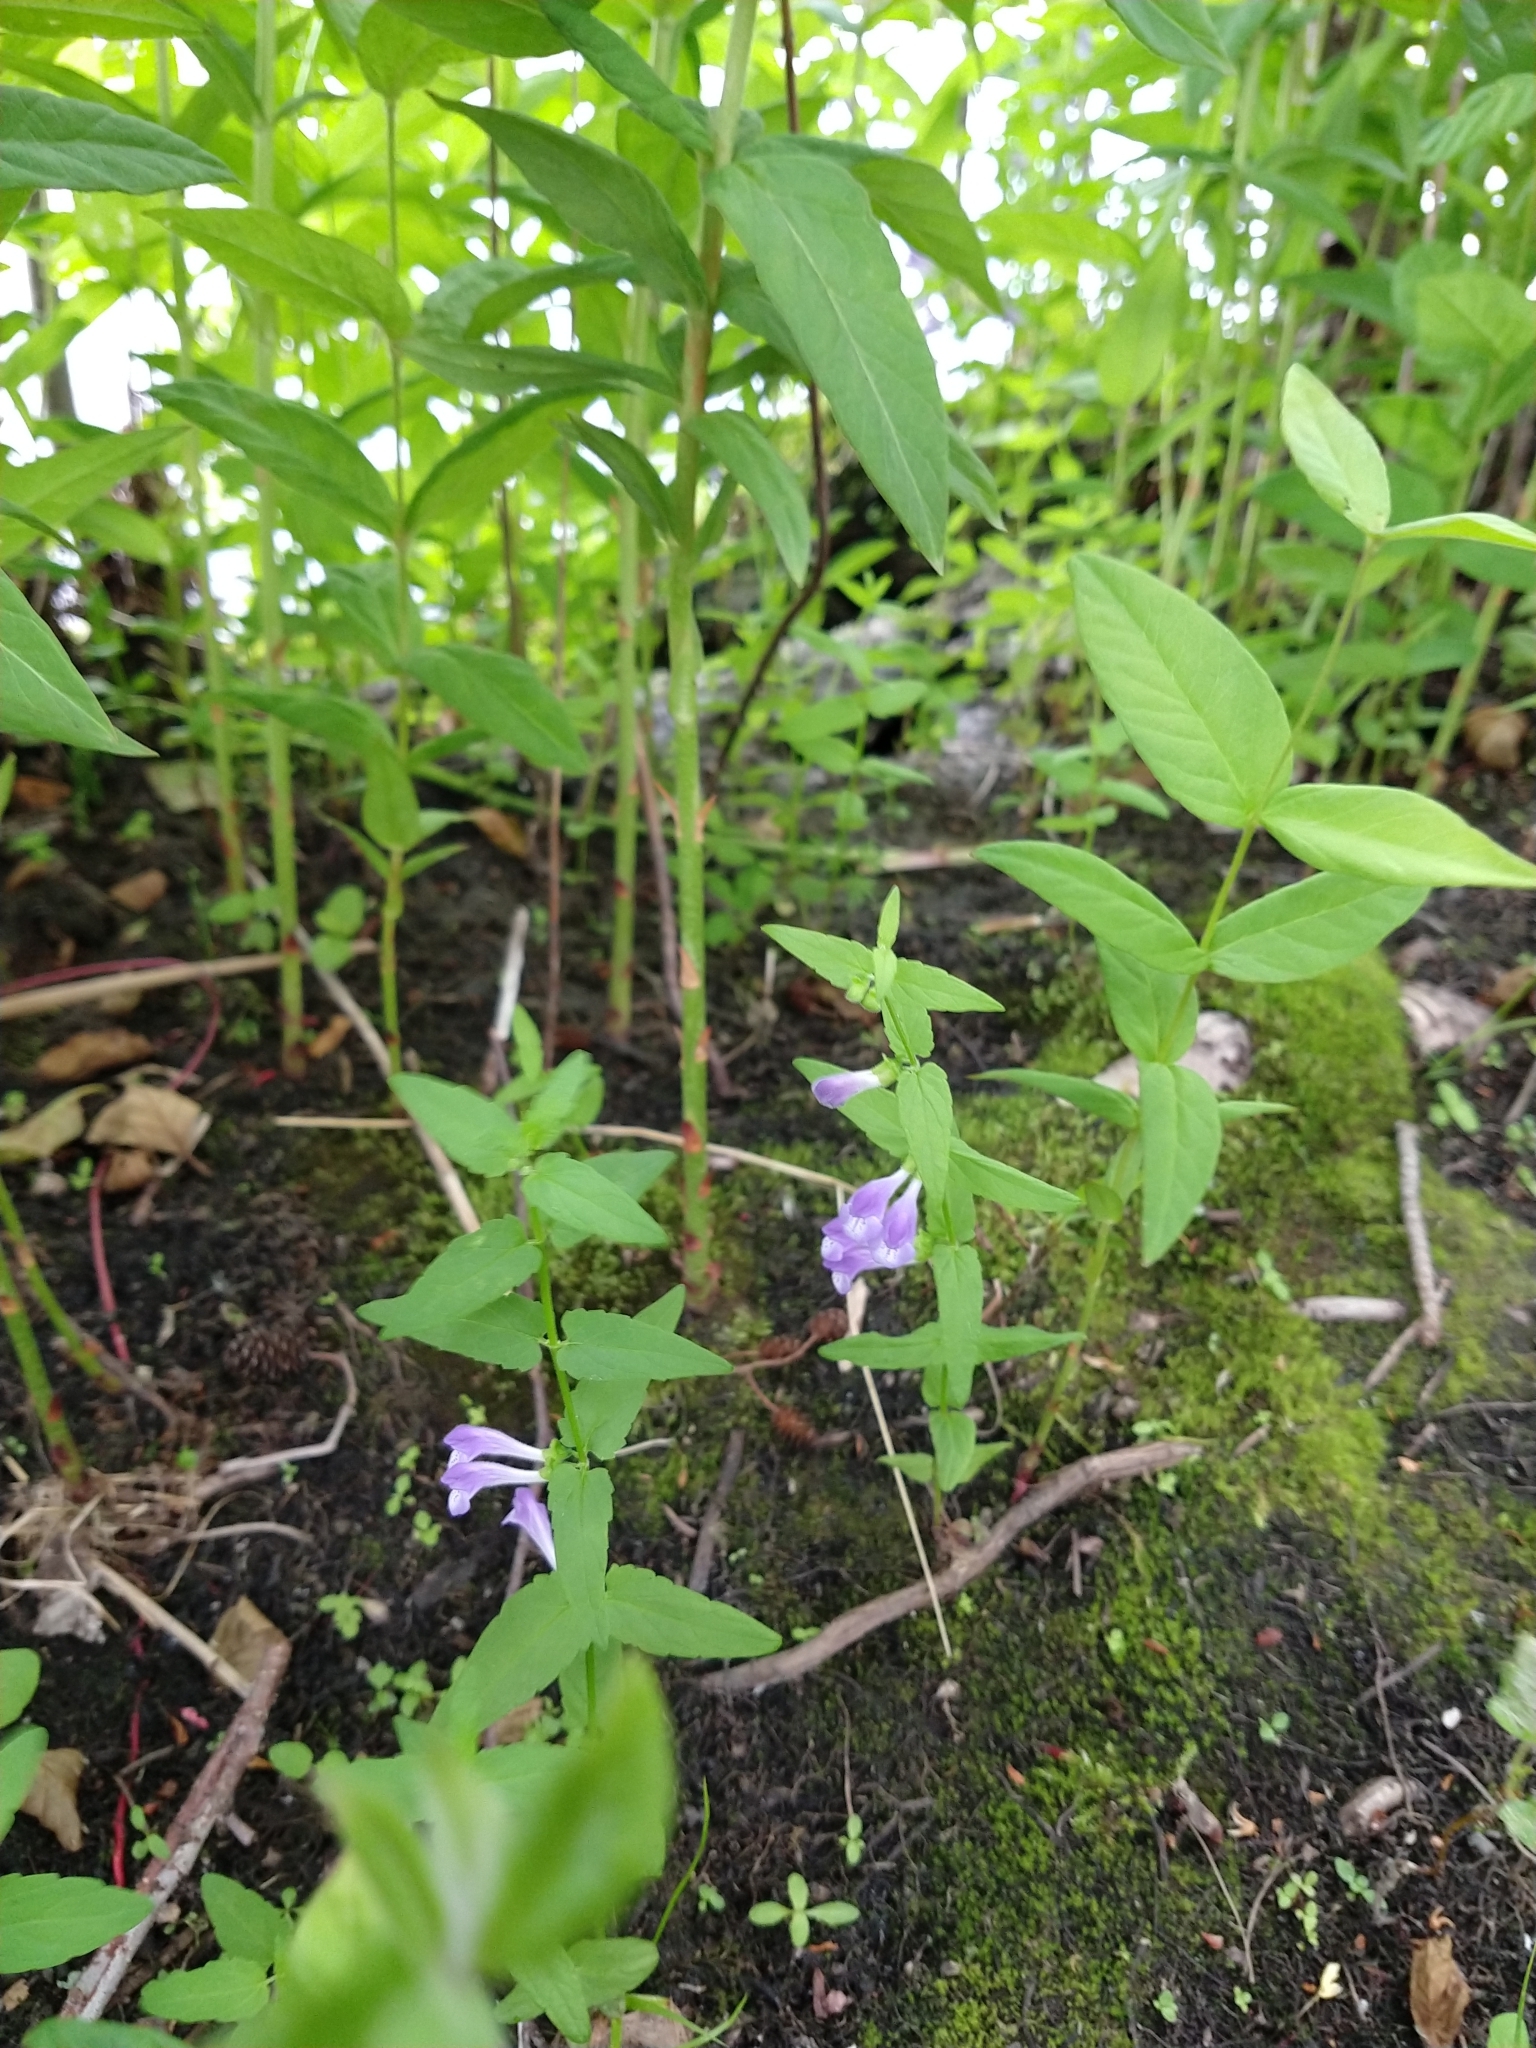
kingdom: Plantae
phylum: Tracheophyta
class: Magnoliopsida
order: Lamiales
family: Lamiaceae
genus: Scutellaria
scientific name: Scutellaria galericulata
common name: Skullcap
